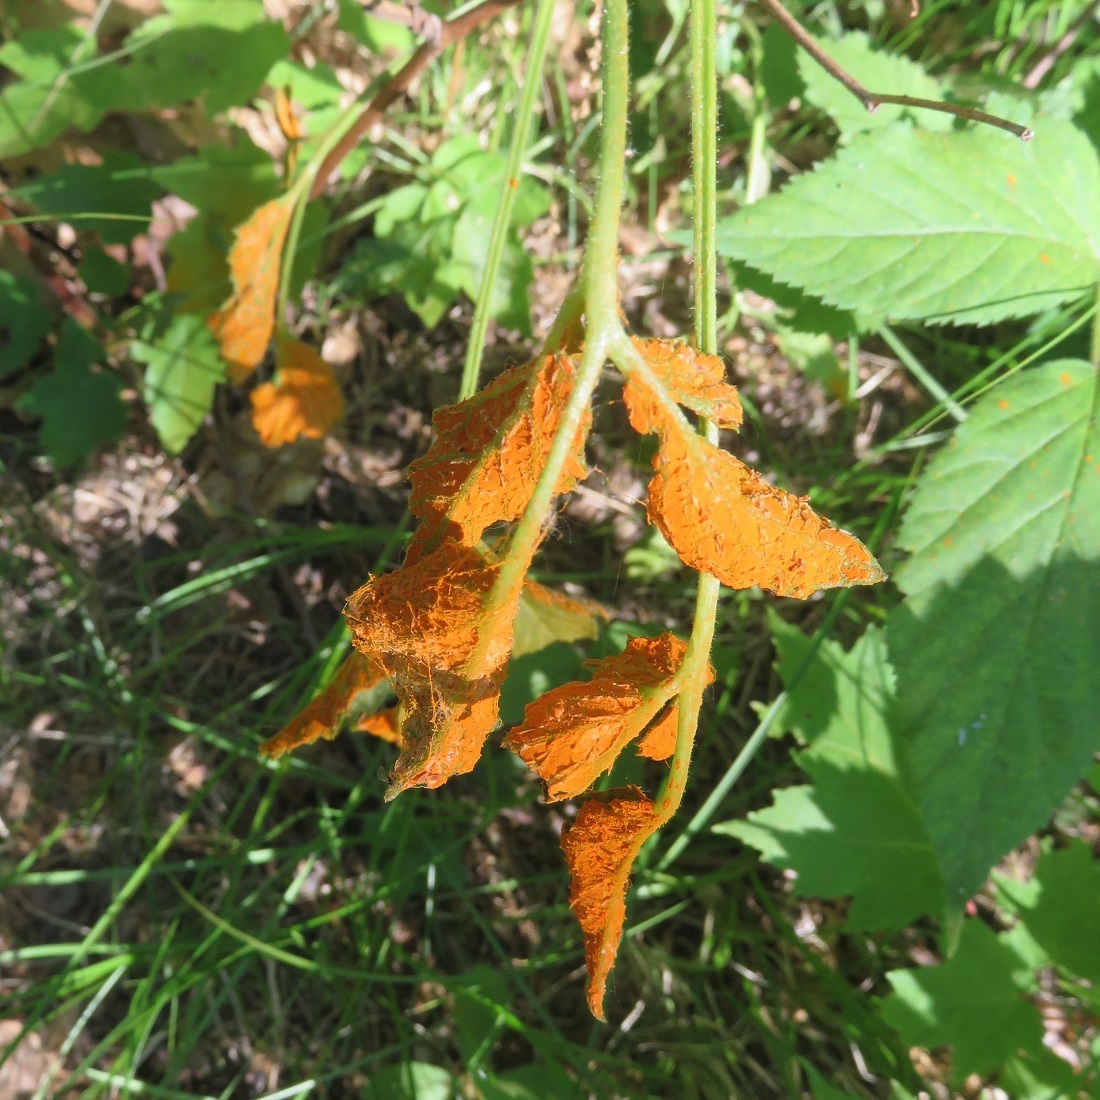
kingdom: Fungi
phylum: Basidiomycota
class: Pucciniomycetes
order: Pucciniales
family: Phragmidiaceae
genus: Arthuriomyces
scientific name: Arthuriomyces peckianus
